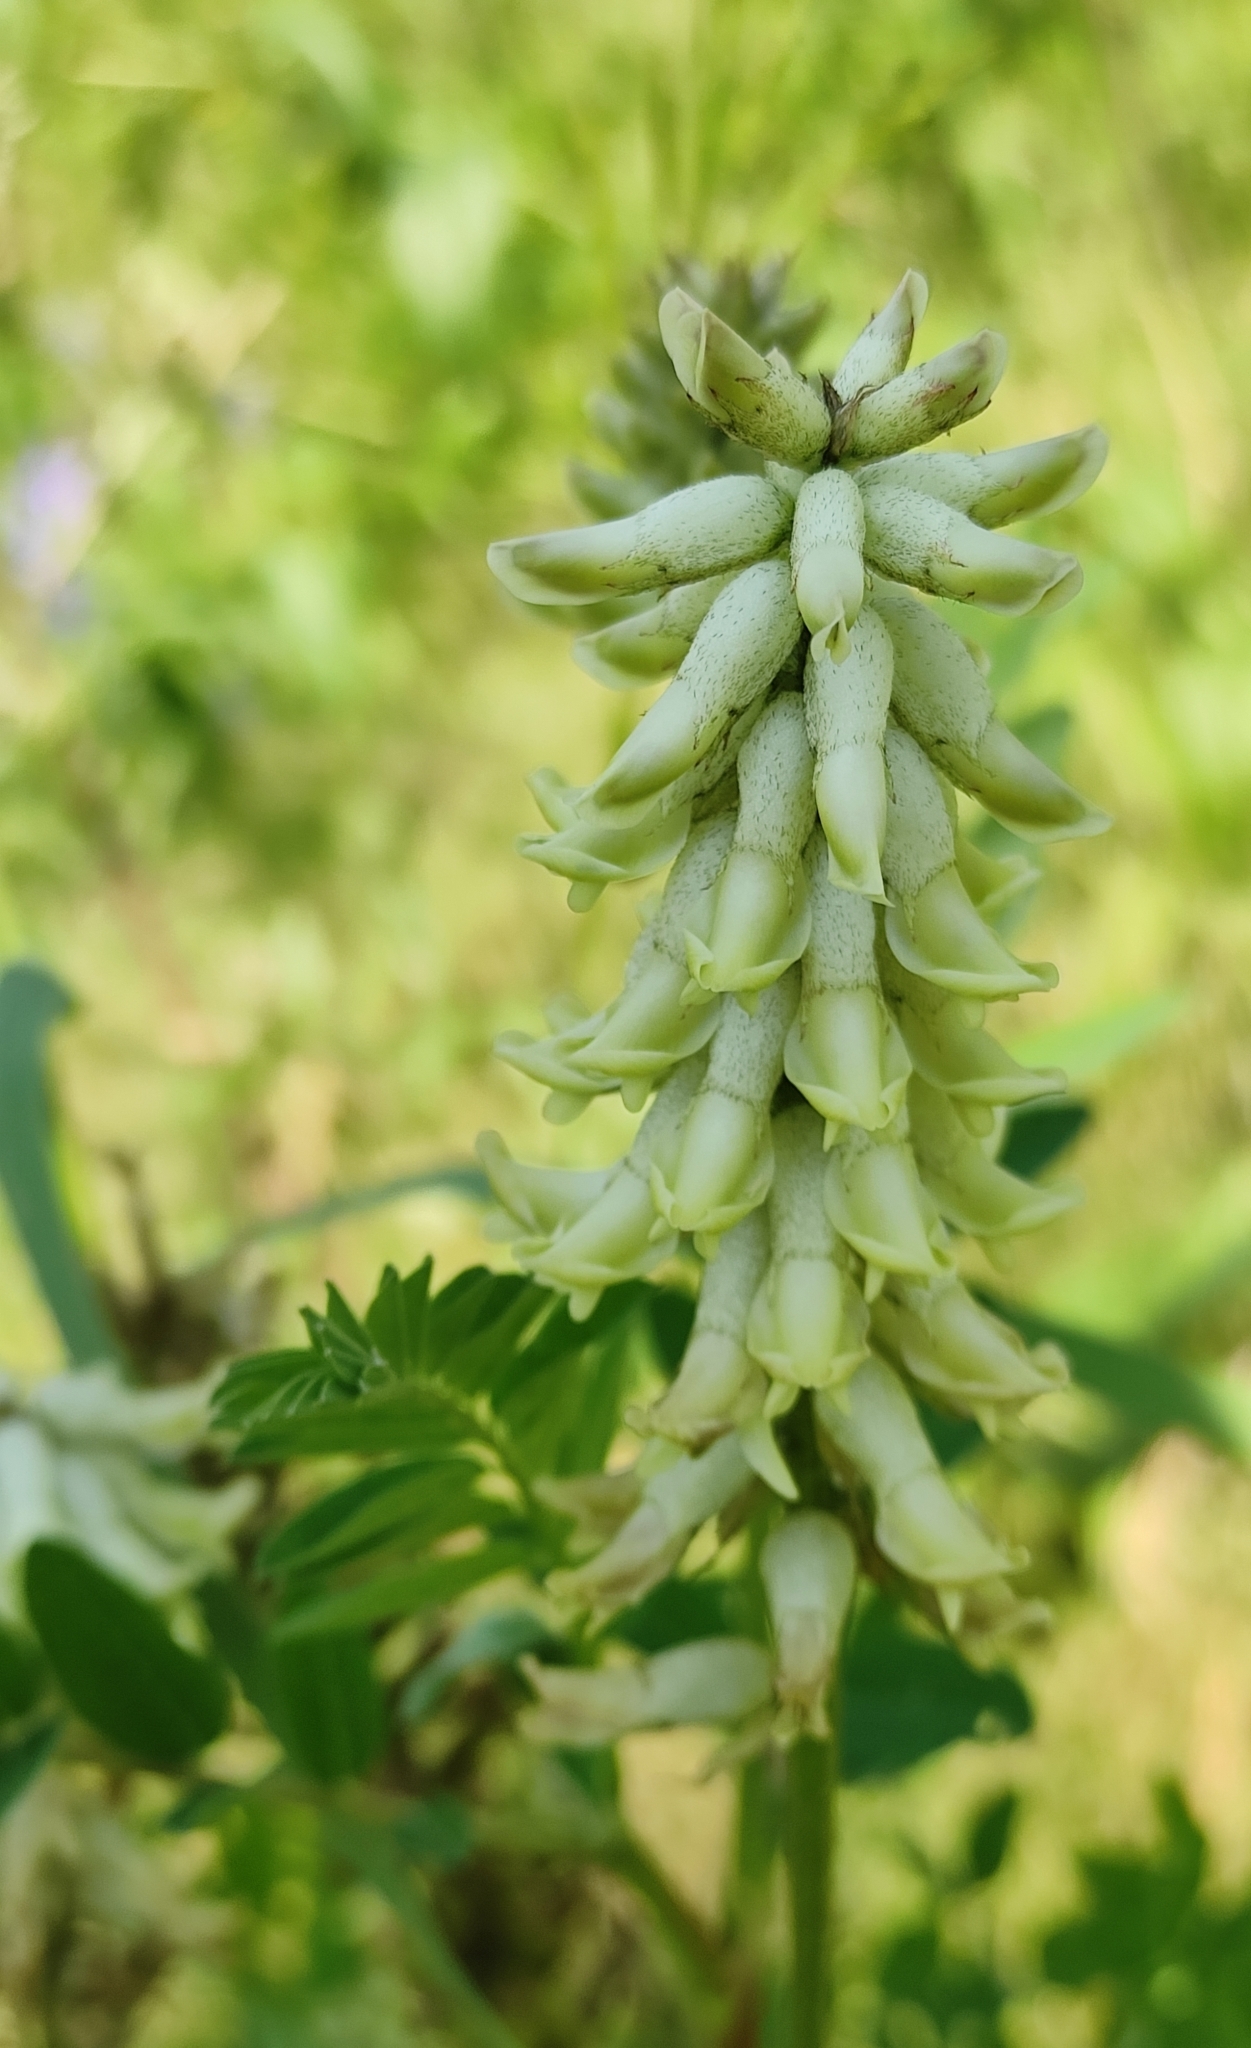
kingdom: Plantae
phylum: Tracheophyta
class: Magnoliopsida
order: Fabales
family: Fabaceae
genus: Astragalus
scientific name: Astragalus uliginosus
